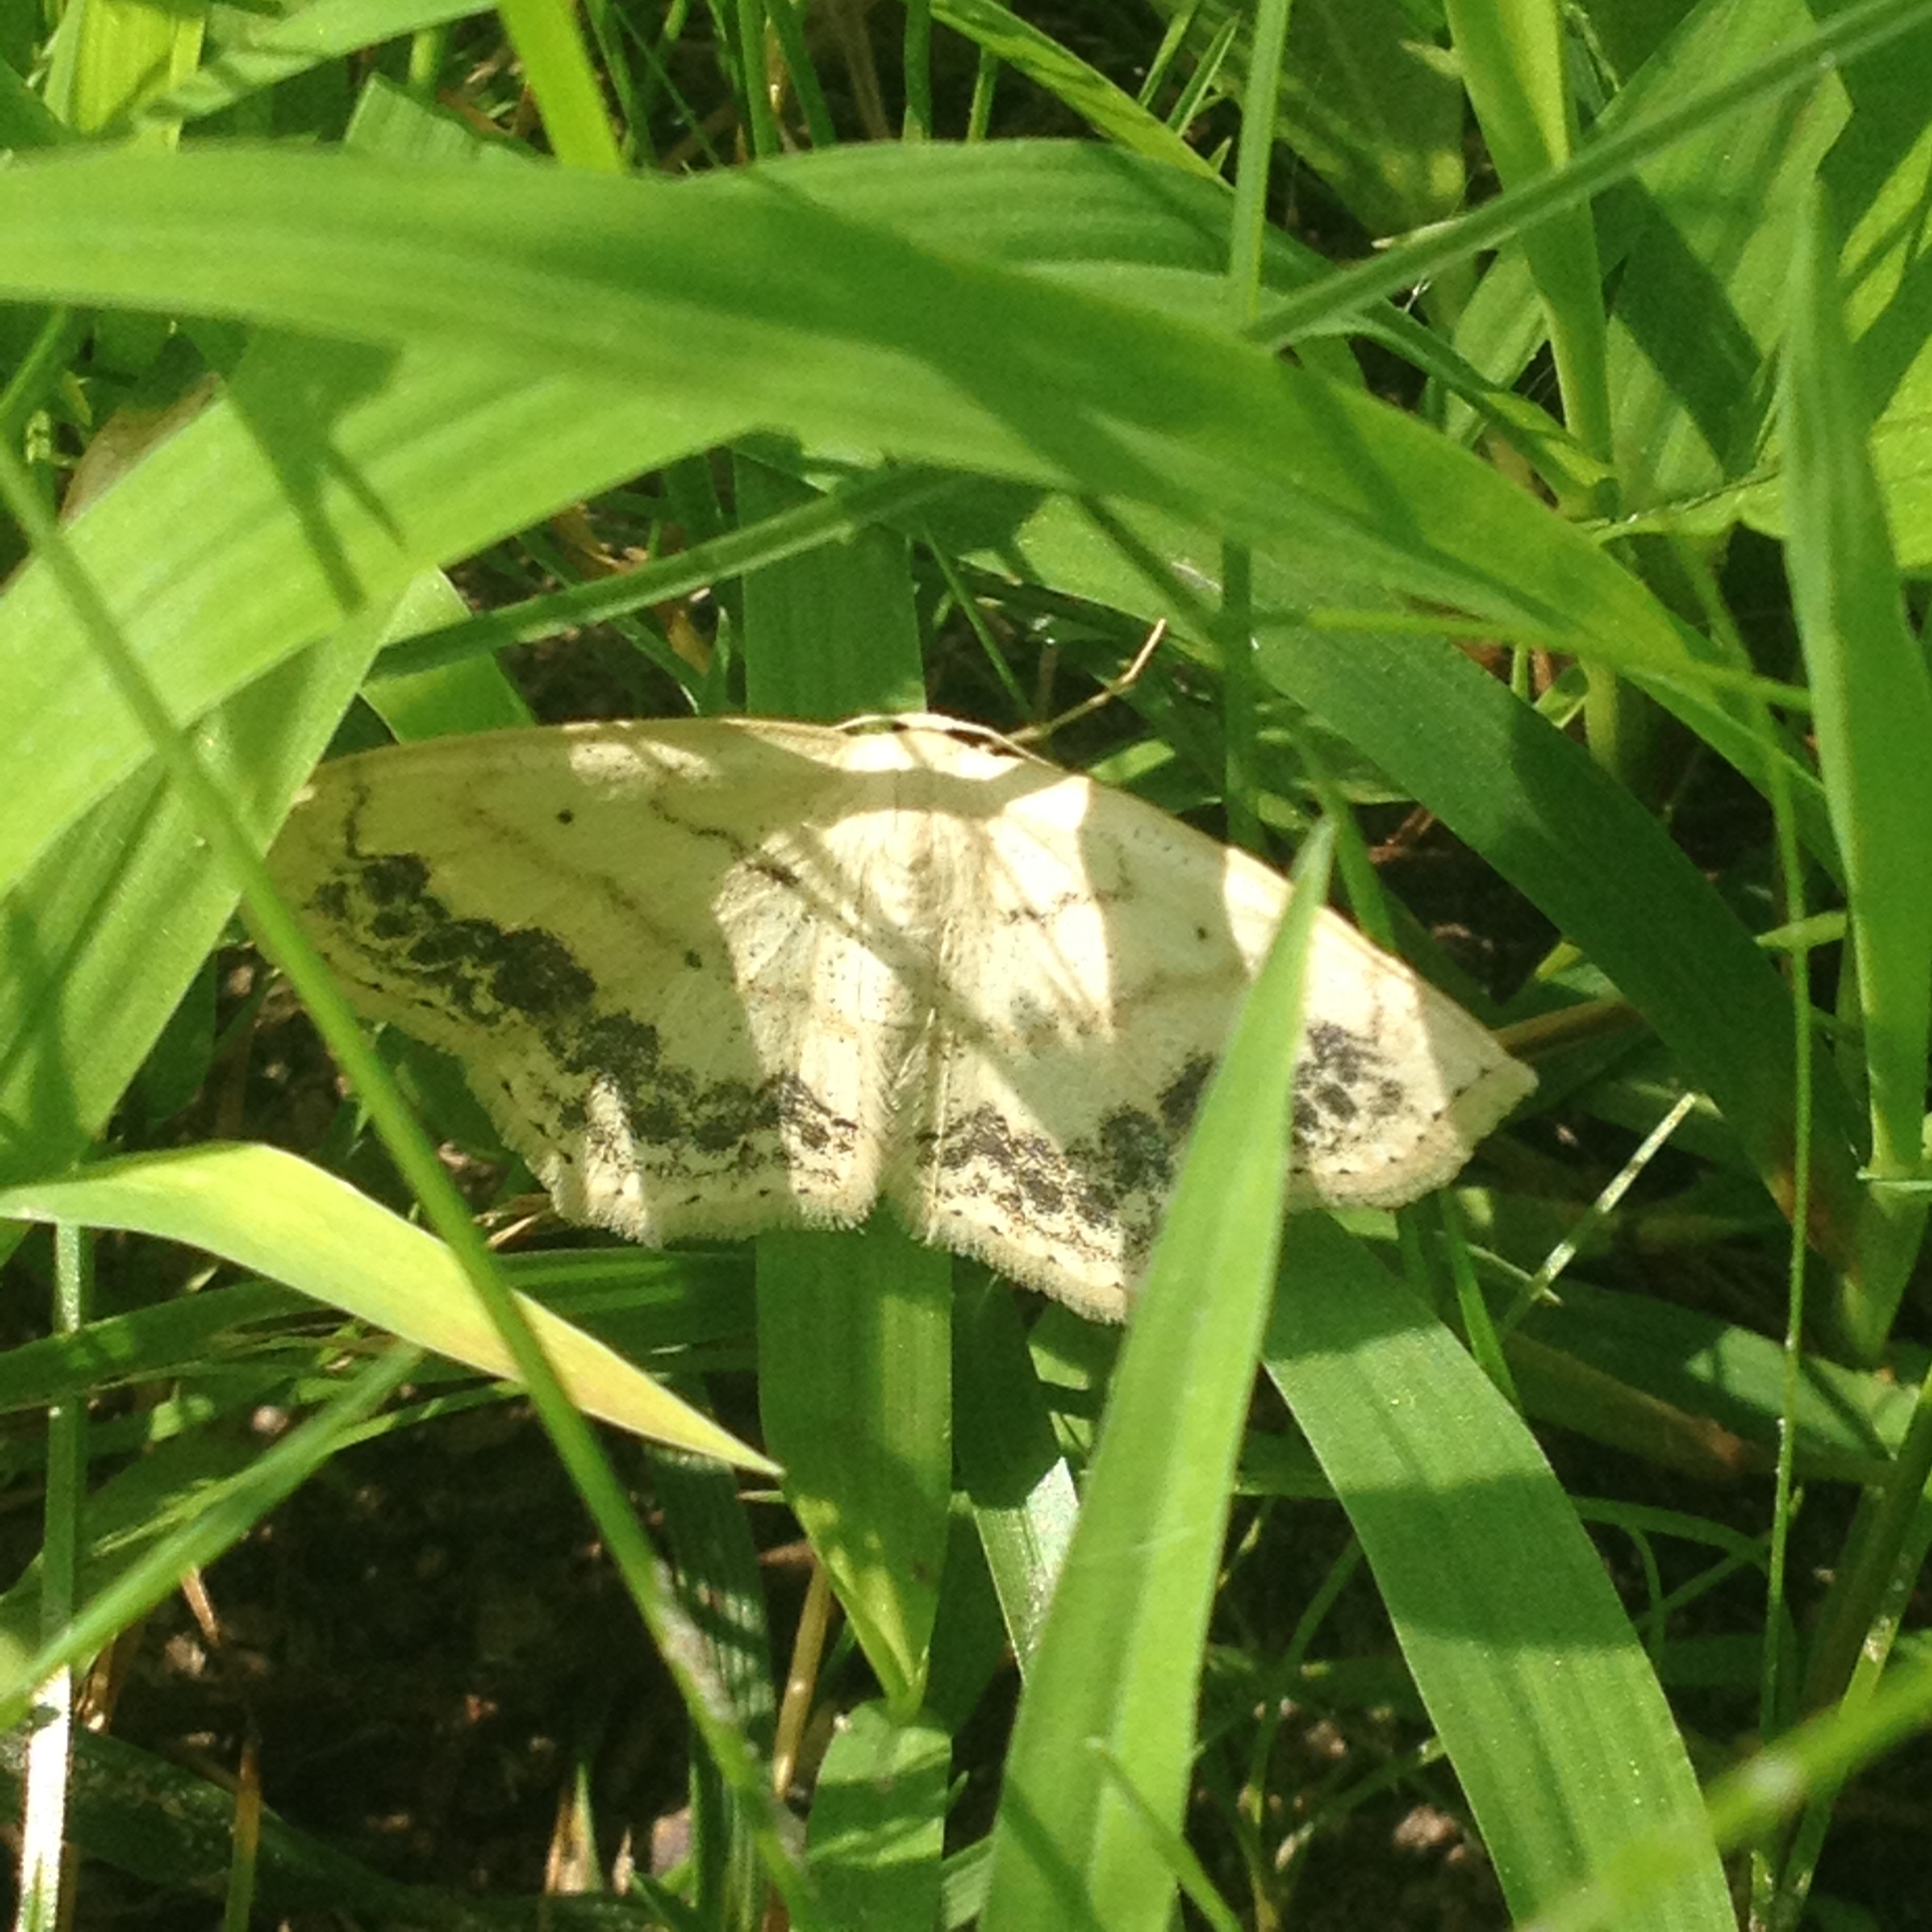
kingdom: Animalia
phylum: Arthropoda
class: Insecta
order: Lepidoptera
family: Geometridae
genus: Scopula
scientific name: Scopula limboundata
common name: Large lace border
